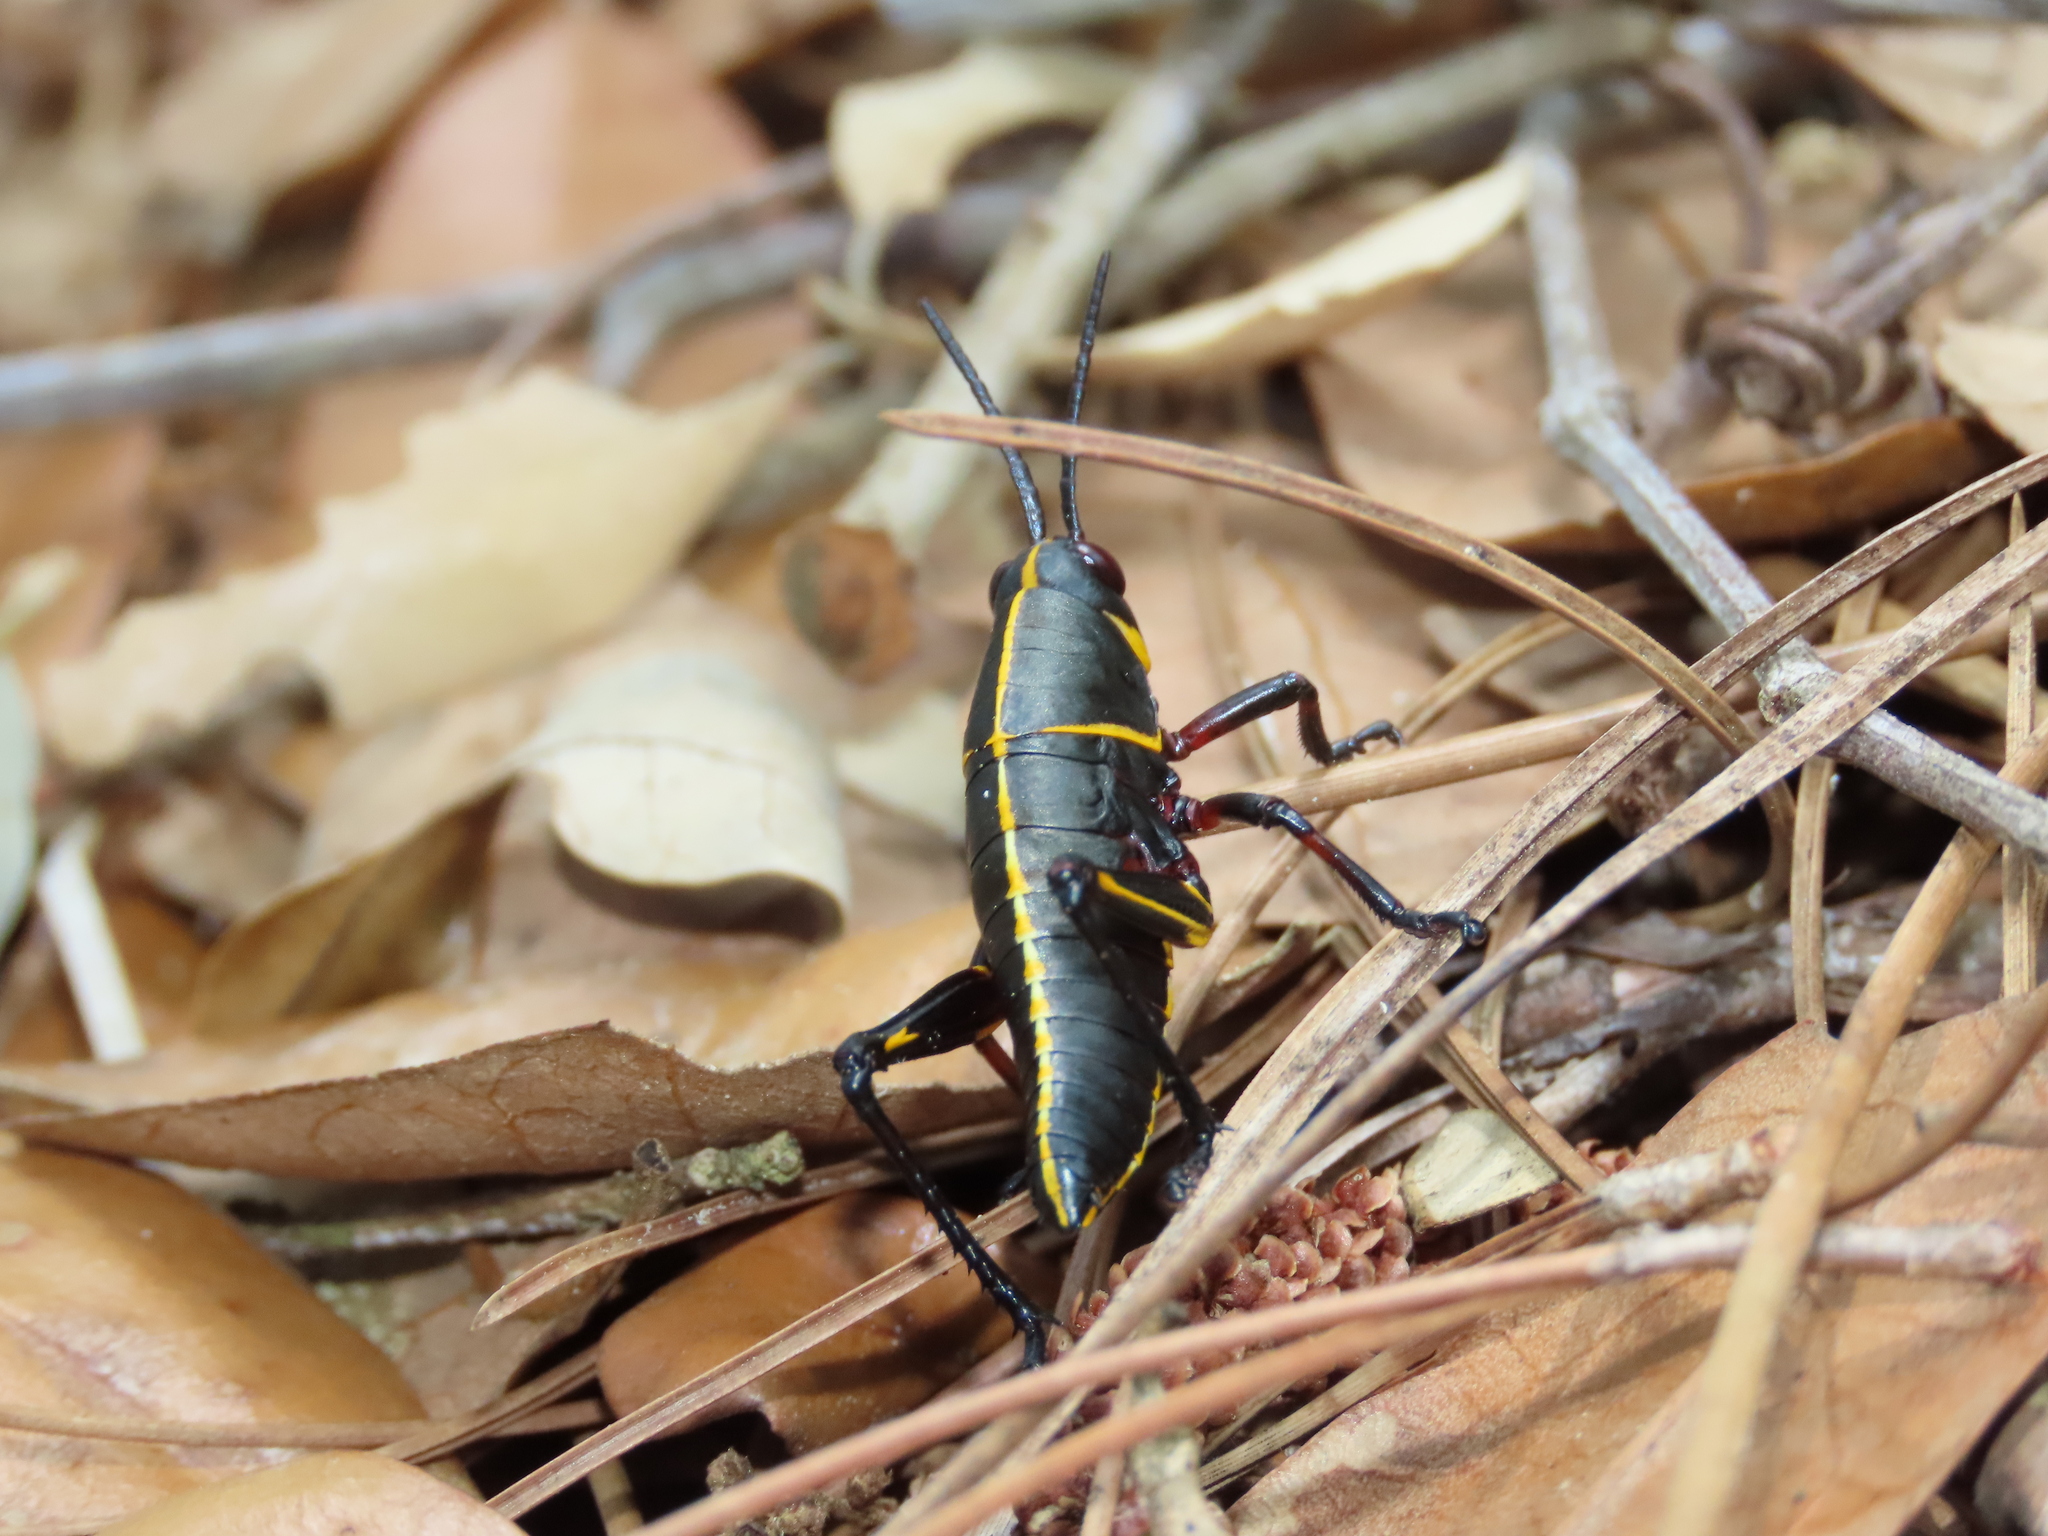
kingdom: Animalia
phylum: Arthropoda
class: Insecta
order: Orthoptera
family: Romaleidae
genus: Romalea
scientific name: Romalea microptera
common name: Eastern lubber grasshopper
